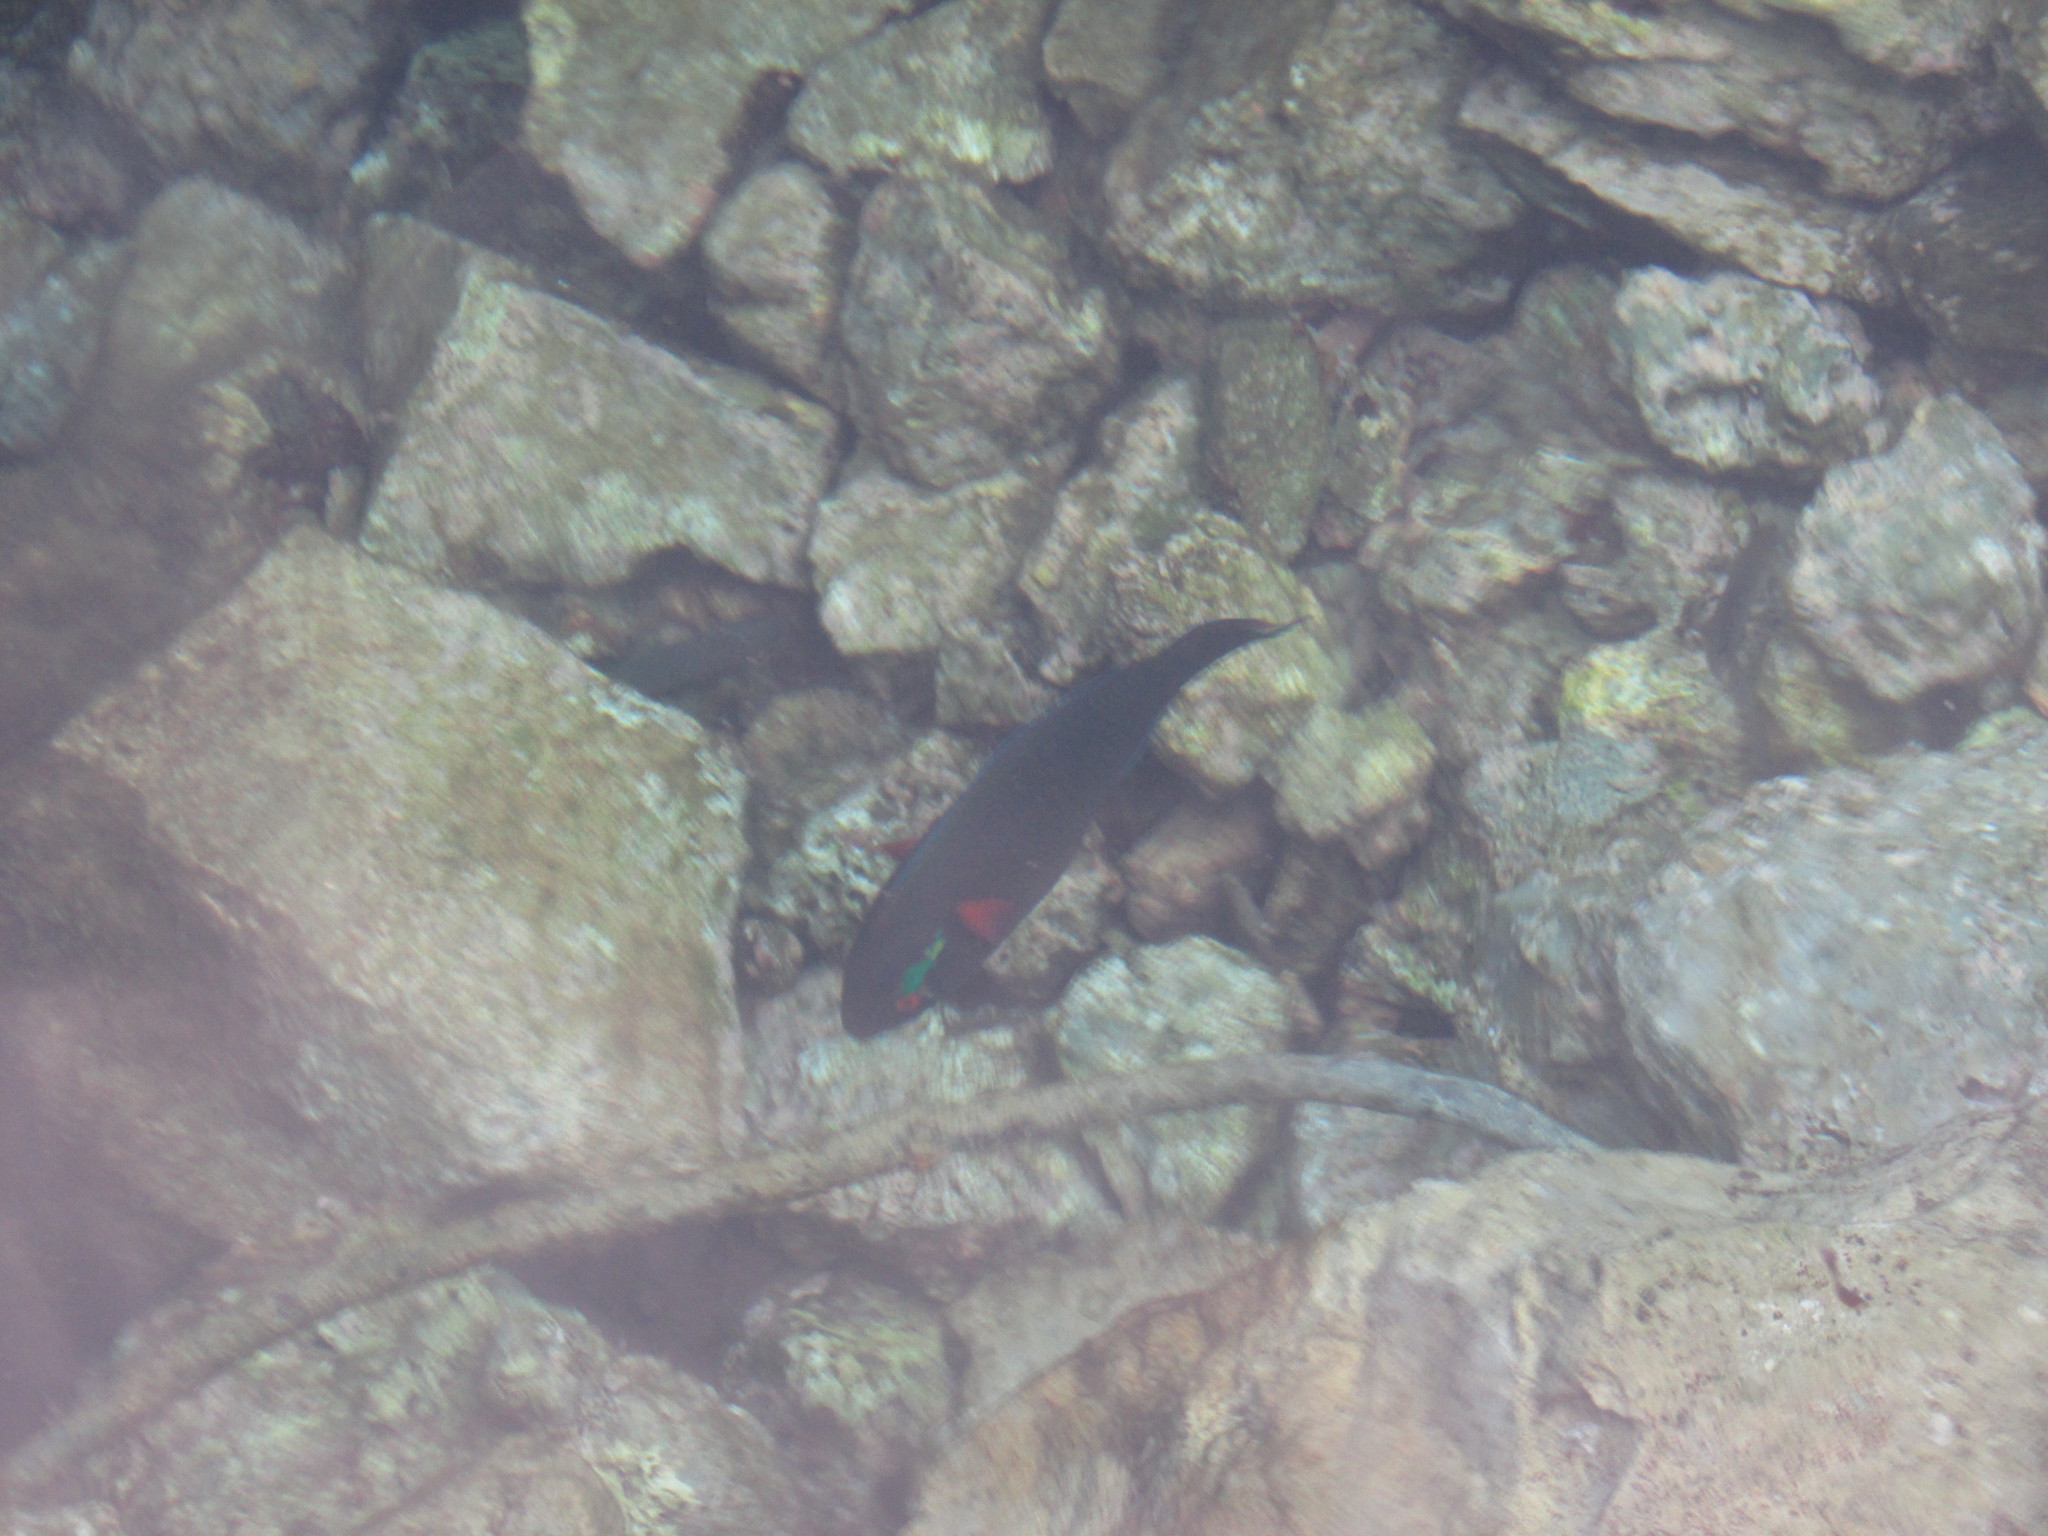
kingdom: Animalia
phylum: Chordata
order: Perciformes
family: Scaridae
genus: Scarus
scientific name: Scarus niger
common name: Dusky parrotfish
